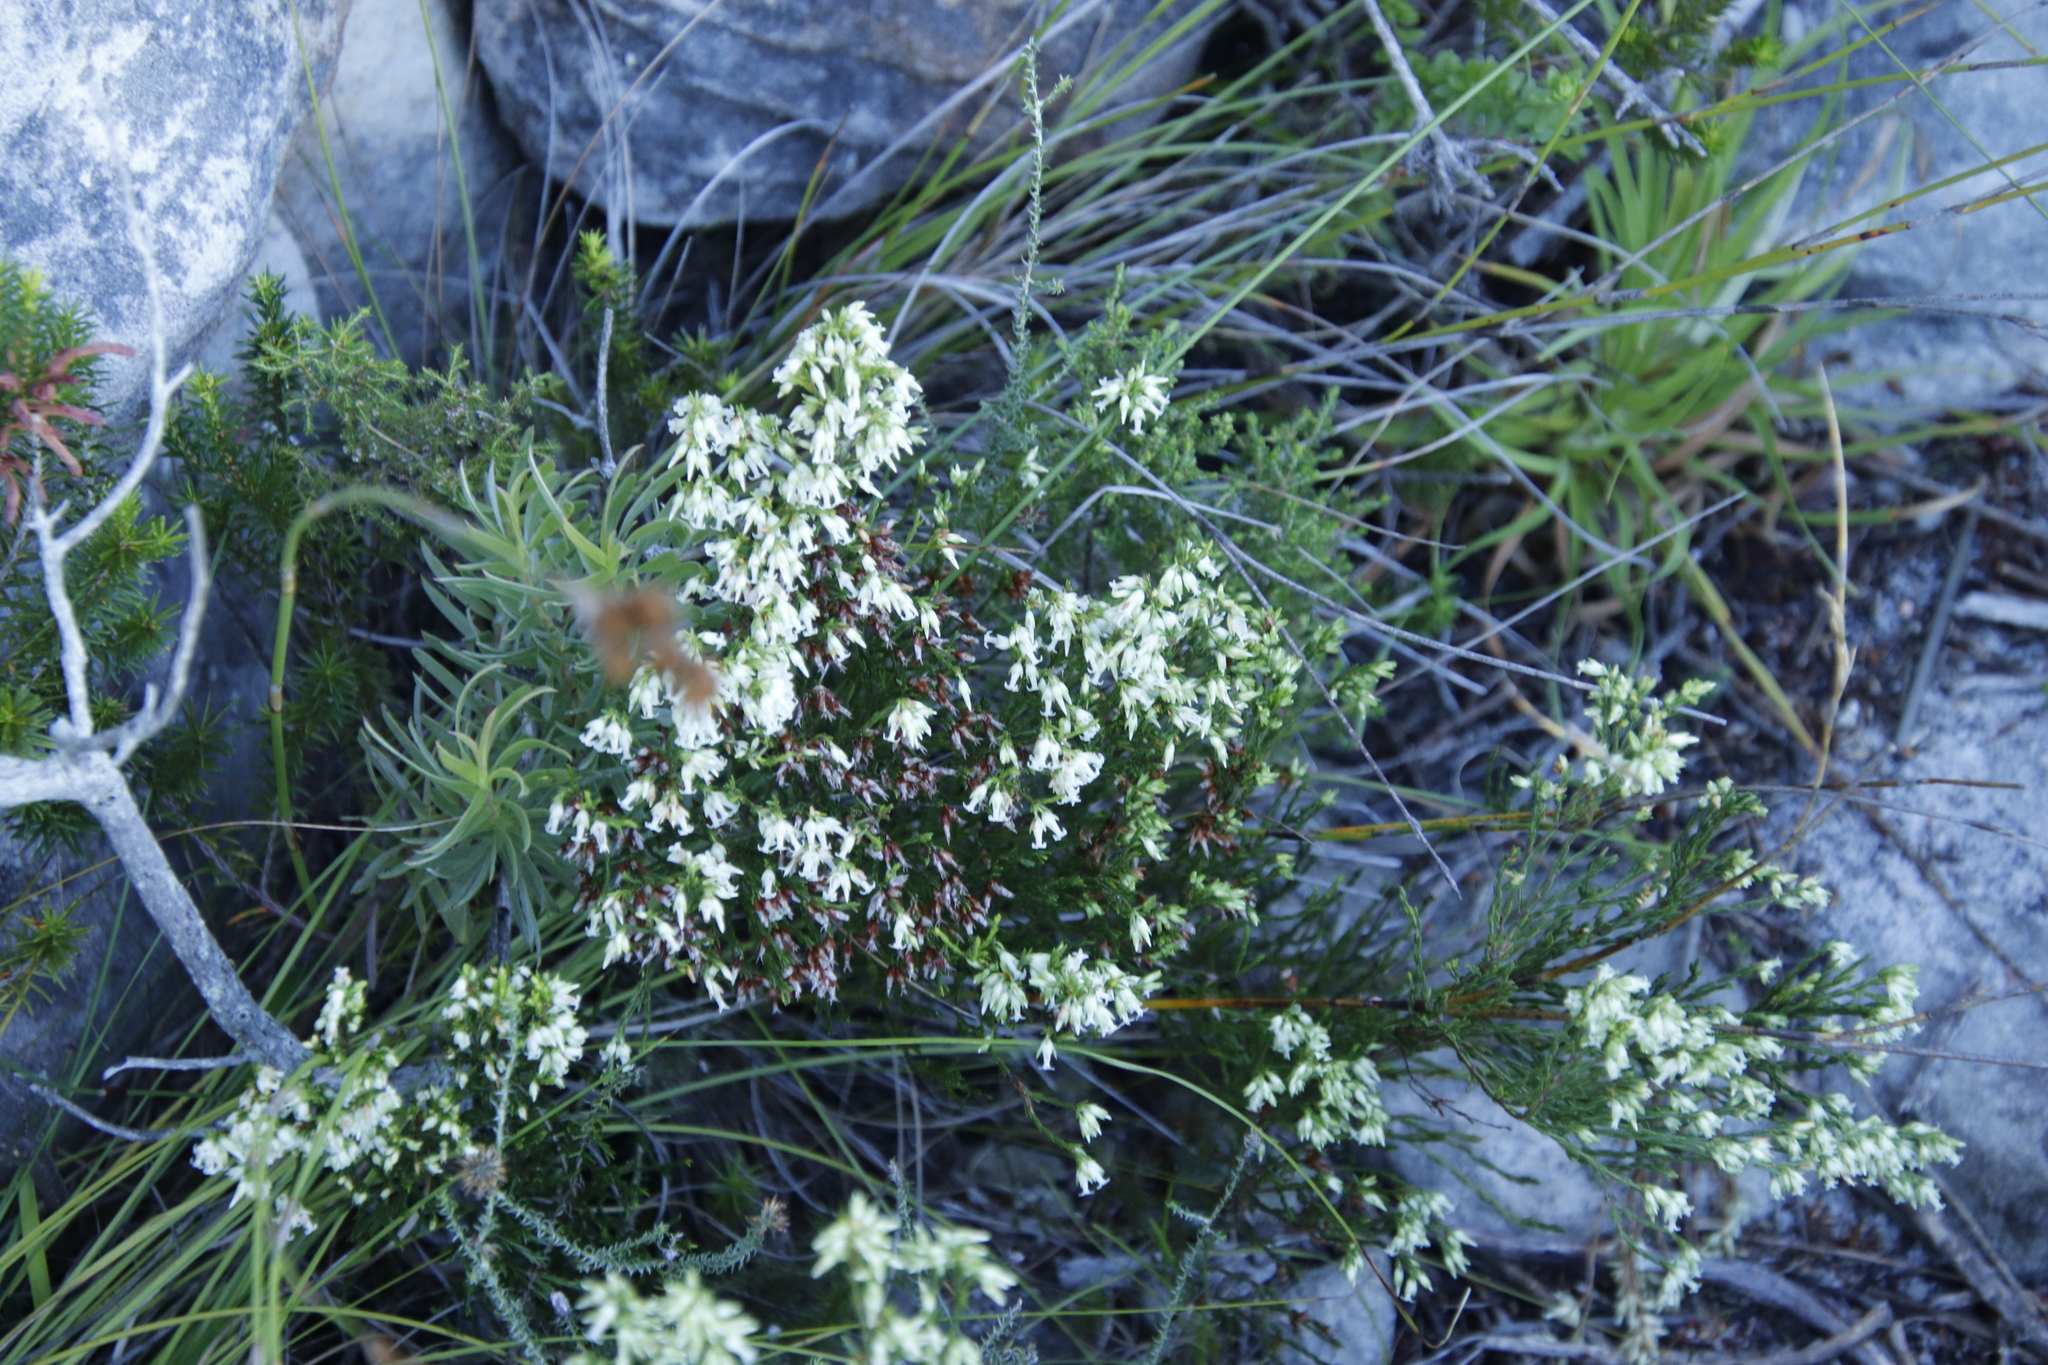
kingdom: Plantae
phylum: Tracheophyta
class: Magnoliopsida
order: Ericales
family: Ericaceae
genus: Erica
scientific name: Erica lutea
